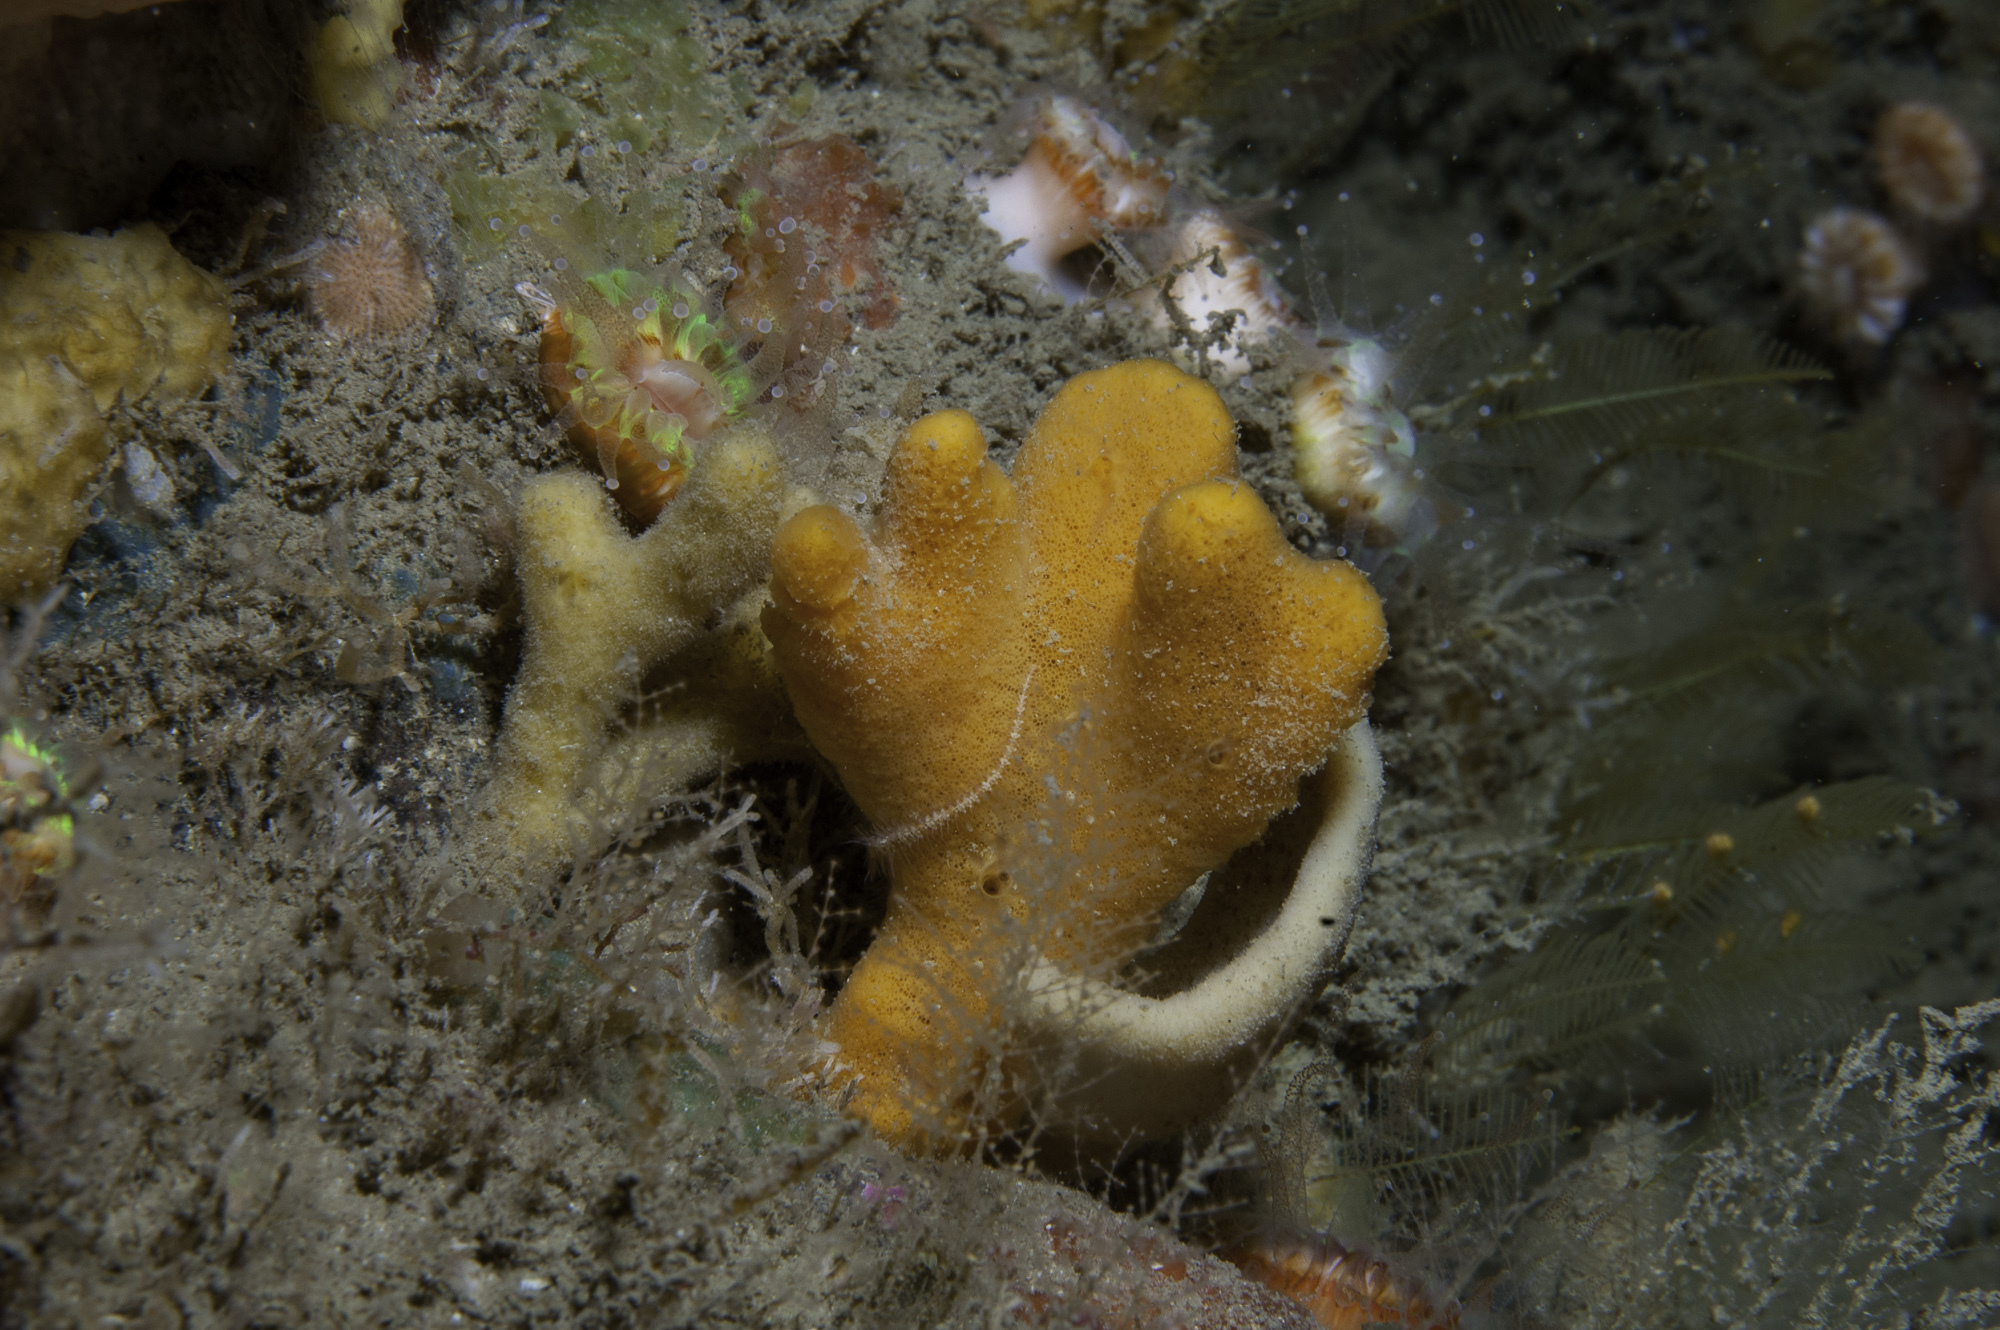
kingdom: Animalia
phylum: Porifera
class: Demospongiae
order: Axinellida
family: Axinellidae
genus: Axinella
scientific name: Axinella dissimilis
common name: Branching sponge
